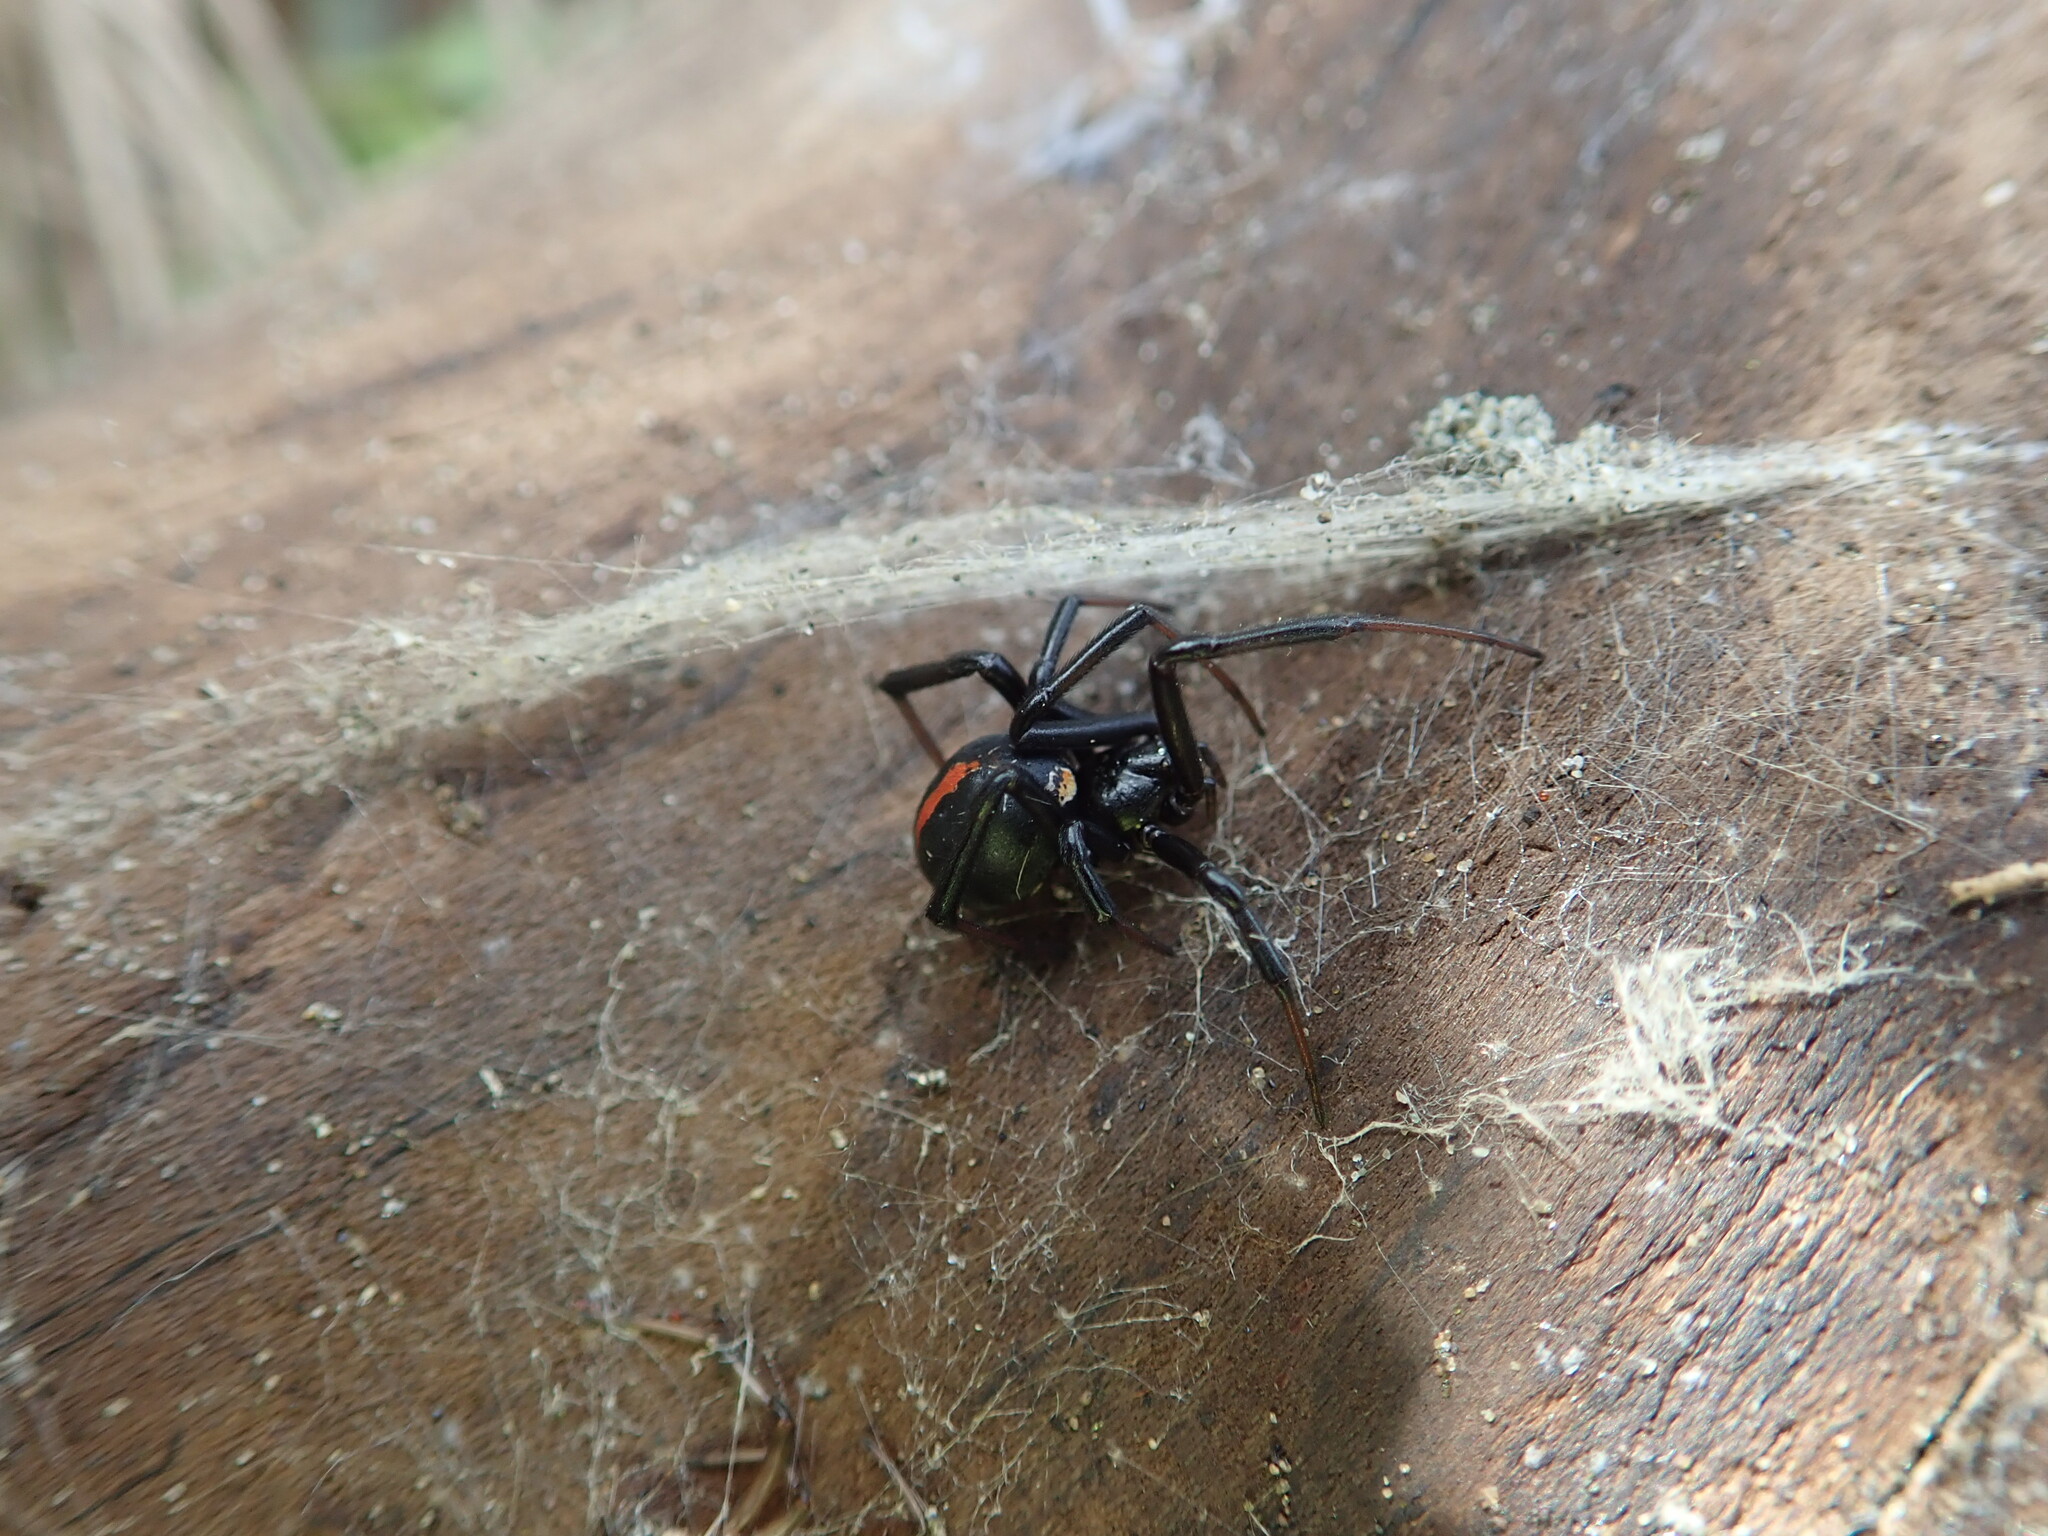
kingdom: Animalia
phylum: Arthropoda
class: Arachnida
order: Araneae
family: Theridiidae
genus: Latrodectus
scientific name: Latrodectus katipo
